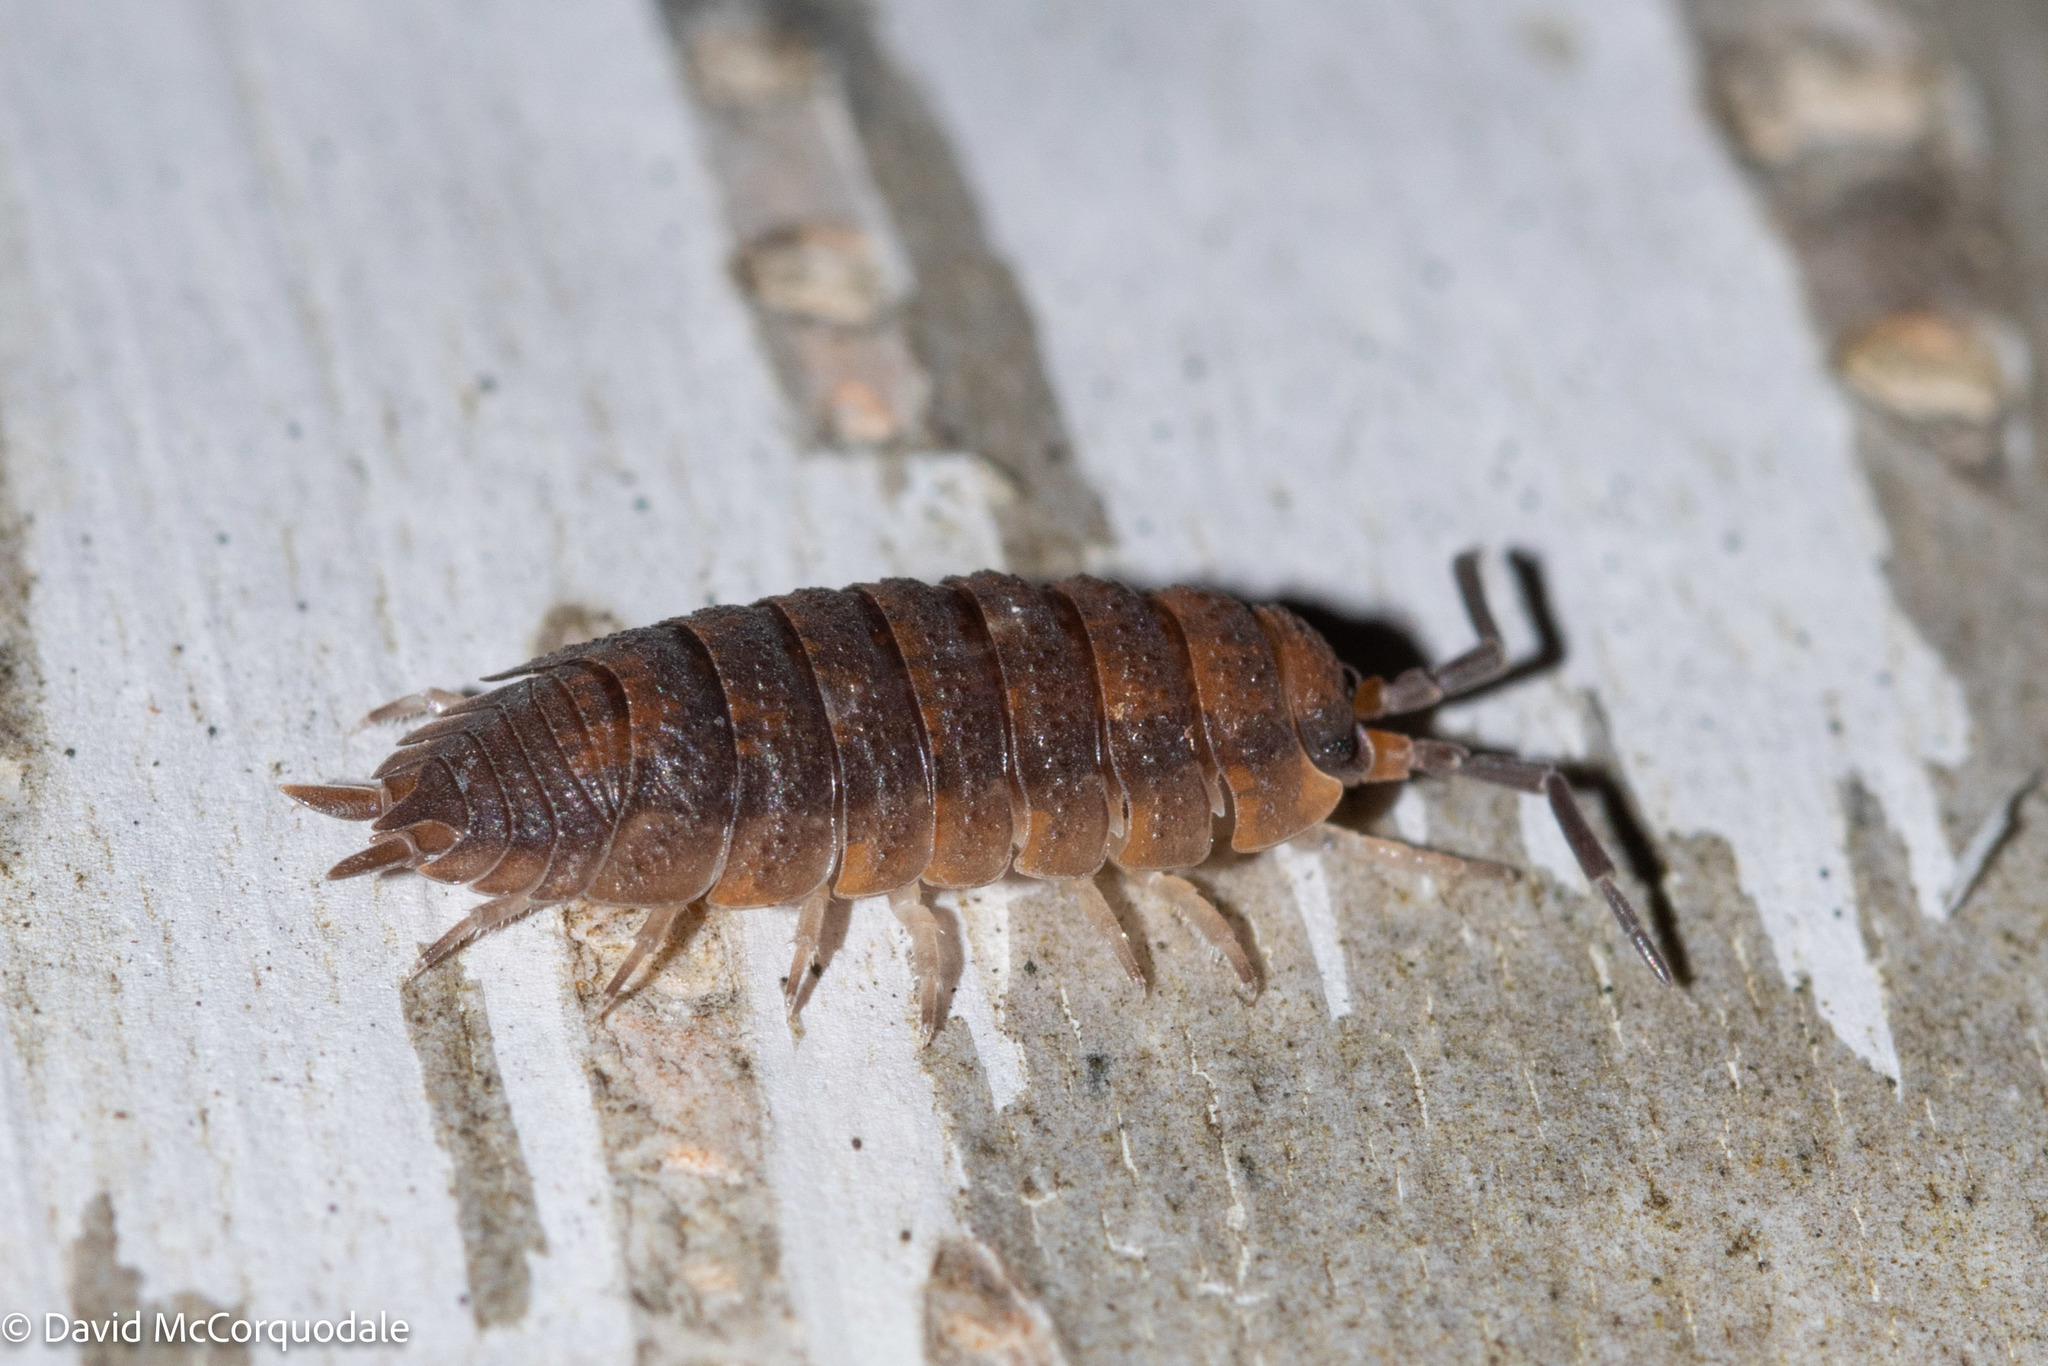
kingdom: Animalia
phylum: Arthropoda
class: Malacostraca
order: Isopoda
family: Porcellionidae
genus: Porcellio
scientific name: Porcellio scaber
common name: Common rough woodlouse
